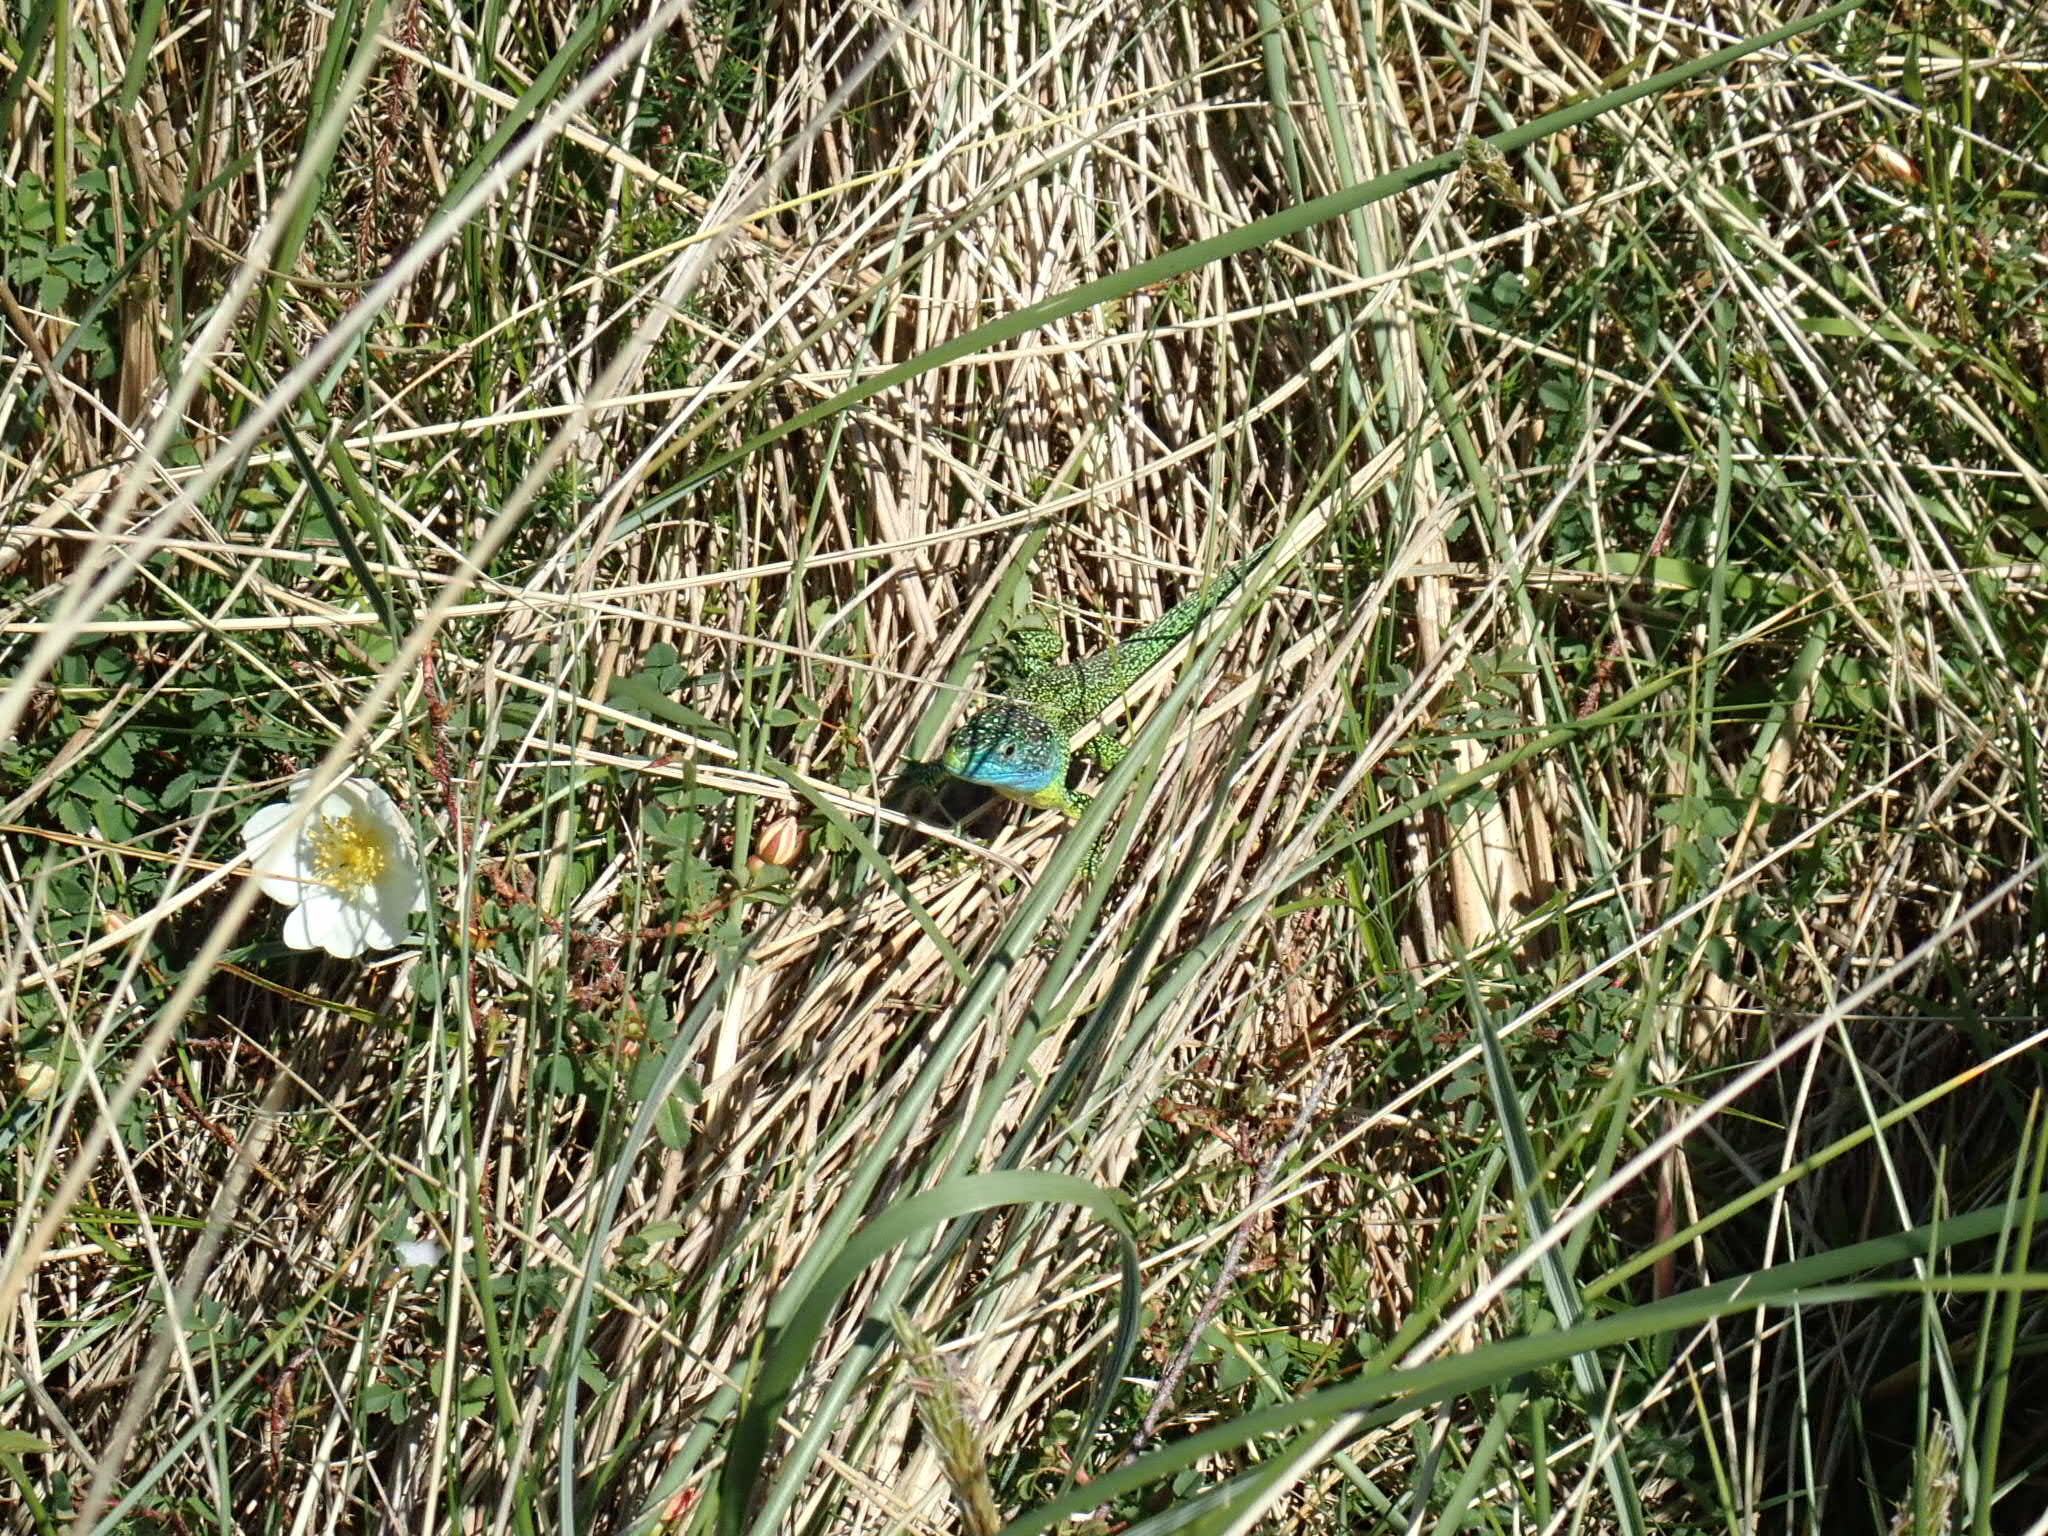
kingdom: Animalia
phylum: Chordata
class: Squamata
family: Lacertidae
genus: Lacerta
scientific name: Lacerta bilineata
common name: Western green lizard
